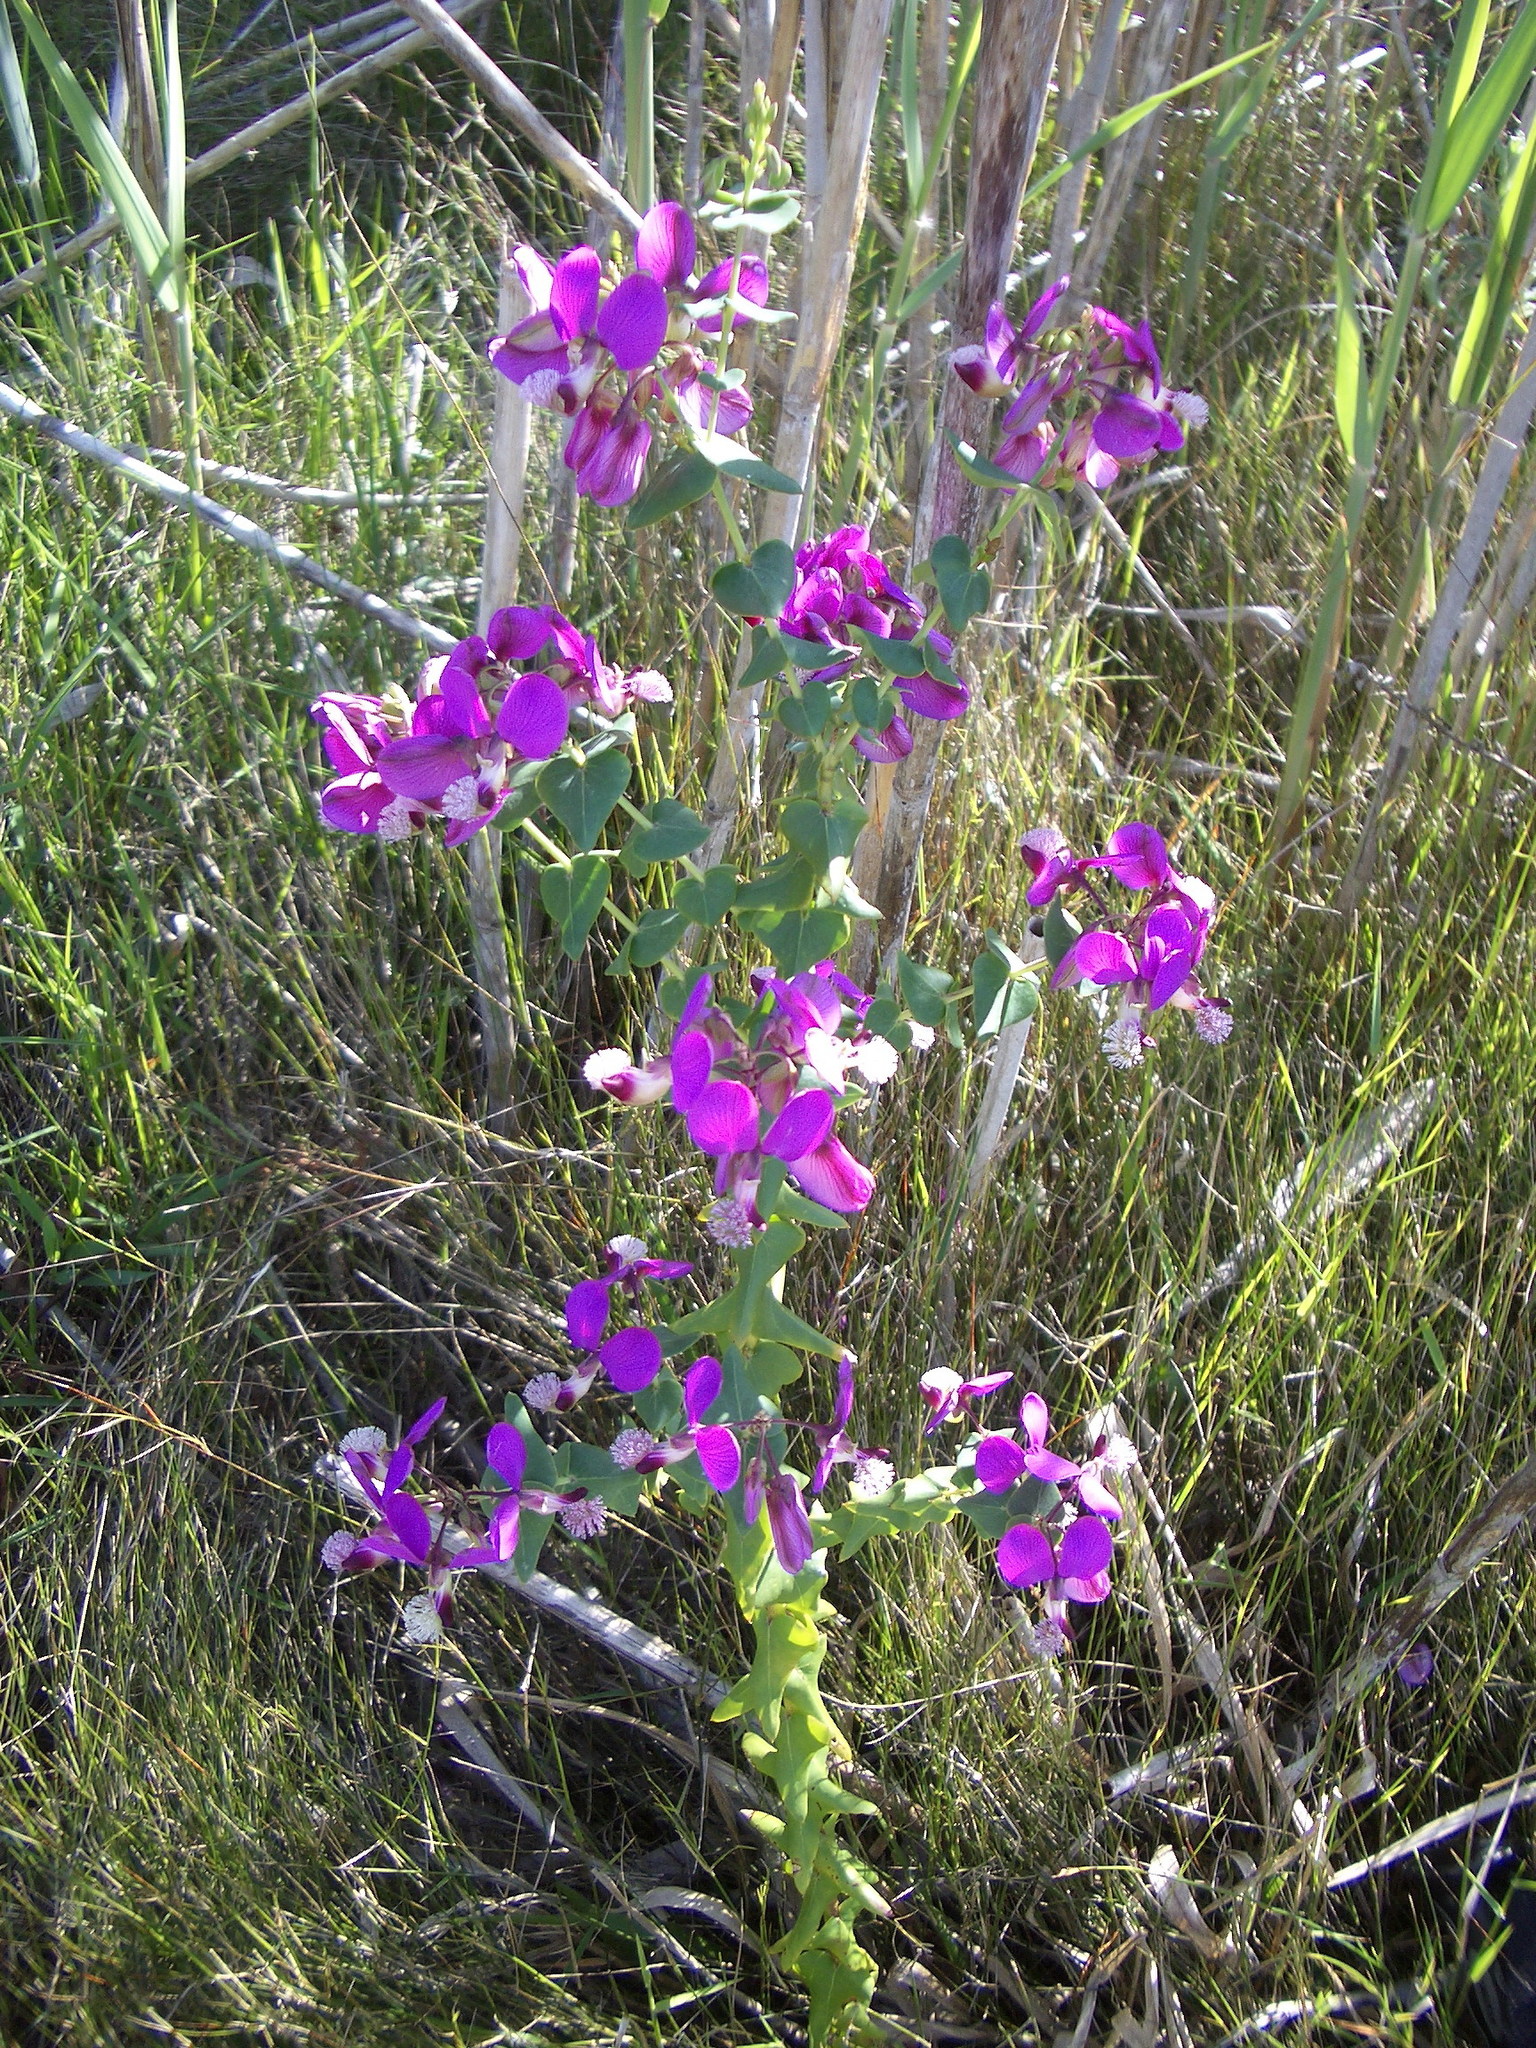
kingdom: Plantae
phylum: Tracheophyta
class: Magnoliopsida
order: Fabales
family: Polygalaceae
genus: Polygala
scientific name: Polygala fruticosa
